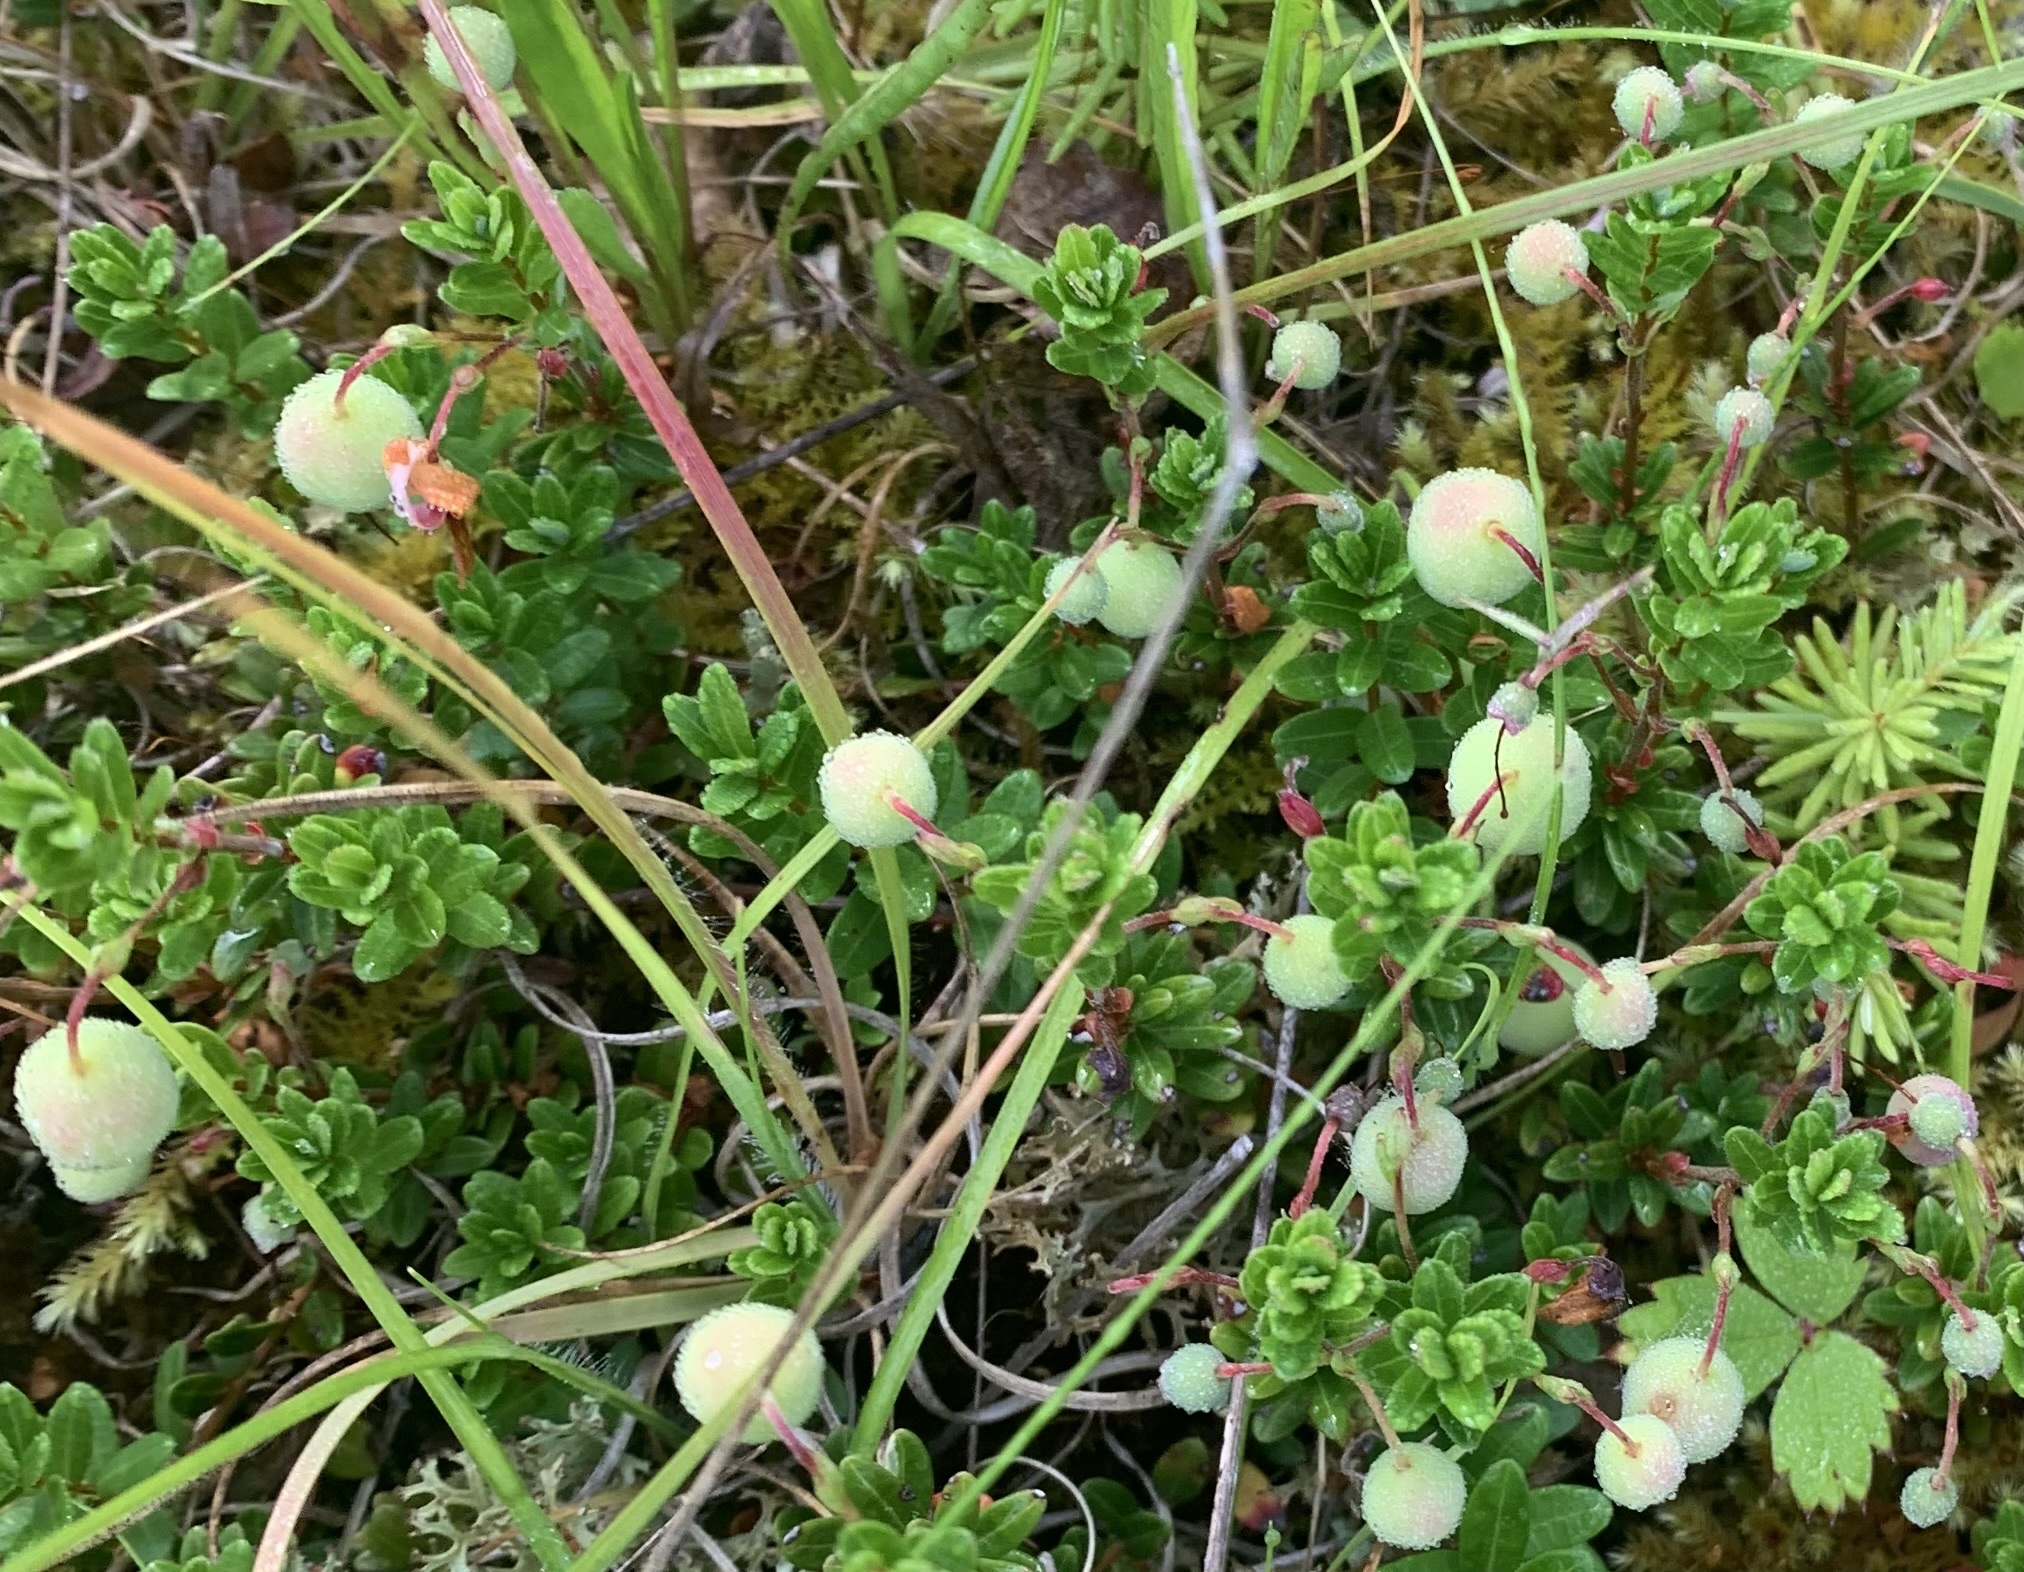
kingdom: Plantae
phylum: Tracheophyta
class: Magnoliopsida
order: Ericales
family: Ericaceae
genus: Vaccinium
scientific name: Vaccinium macrocarpon
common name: American cranberry
